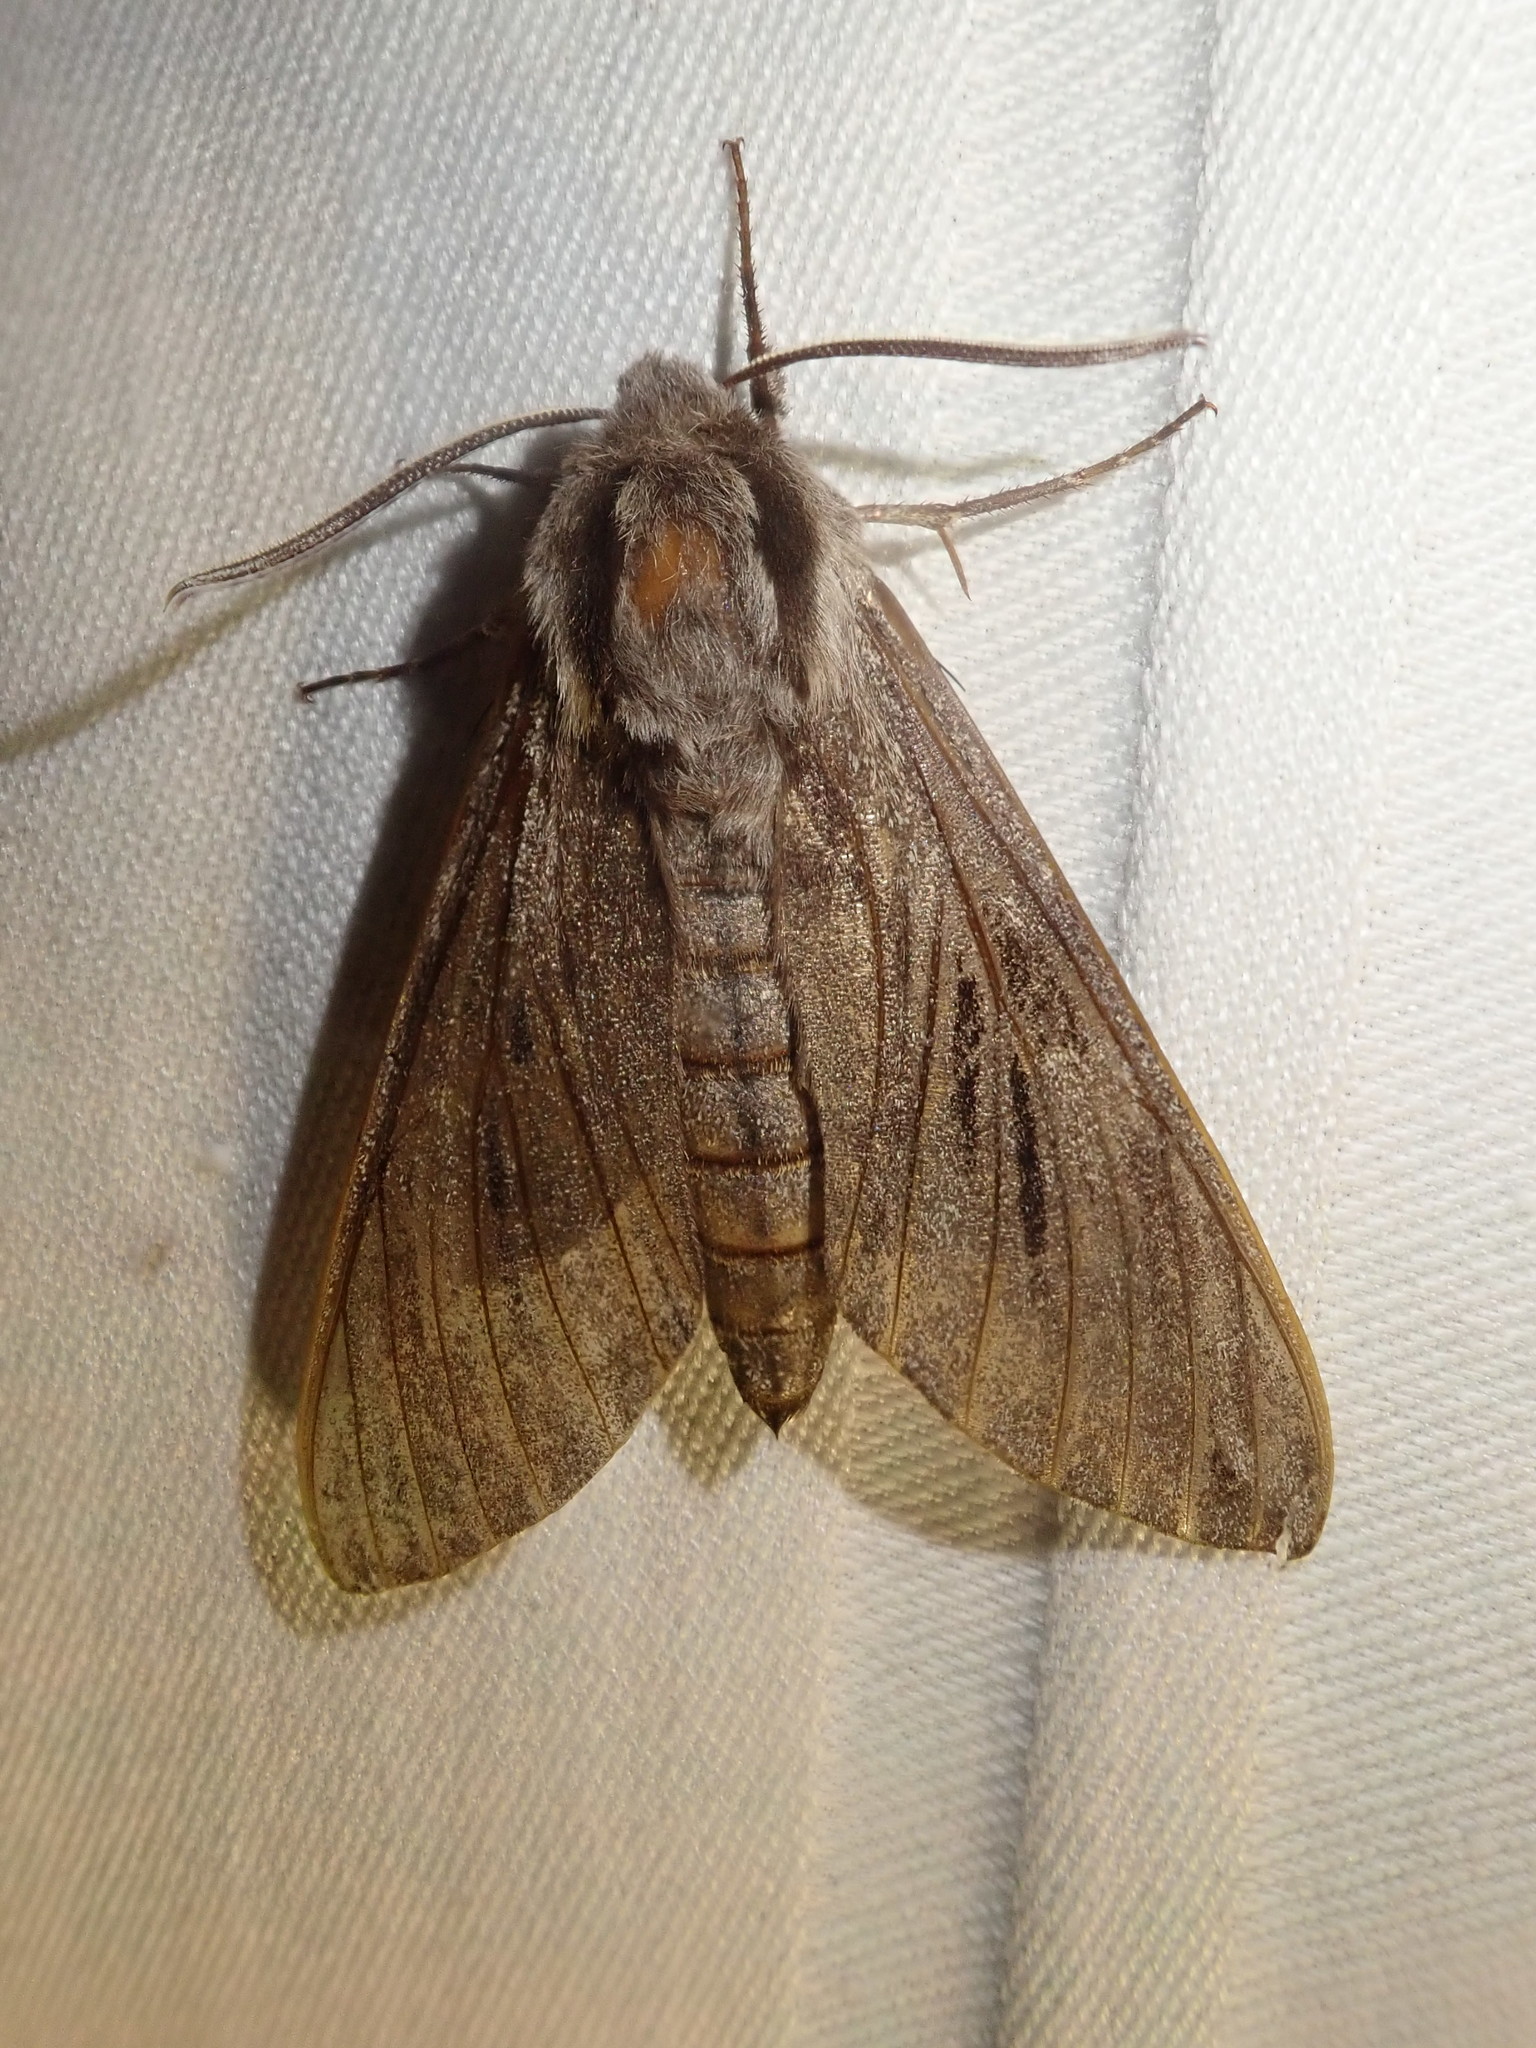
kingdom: Animalia
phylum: Arthropoda
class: Insecta
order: Lepidoptera
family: Sphingidae
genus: Sphinx
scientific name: Sphinx pinastri
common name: Pine hawk-moth
